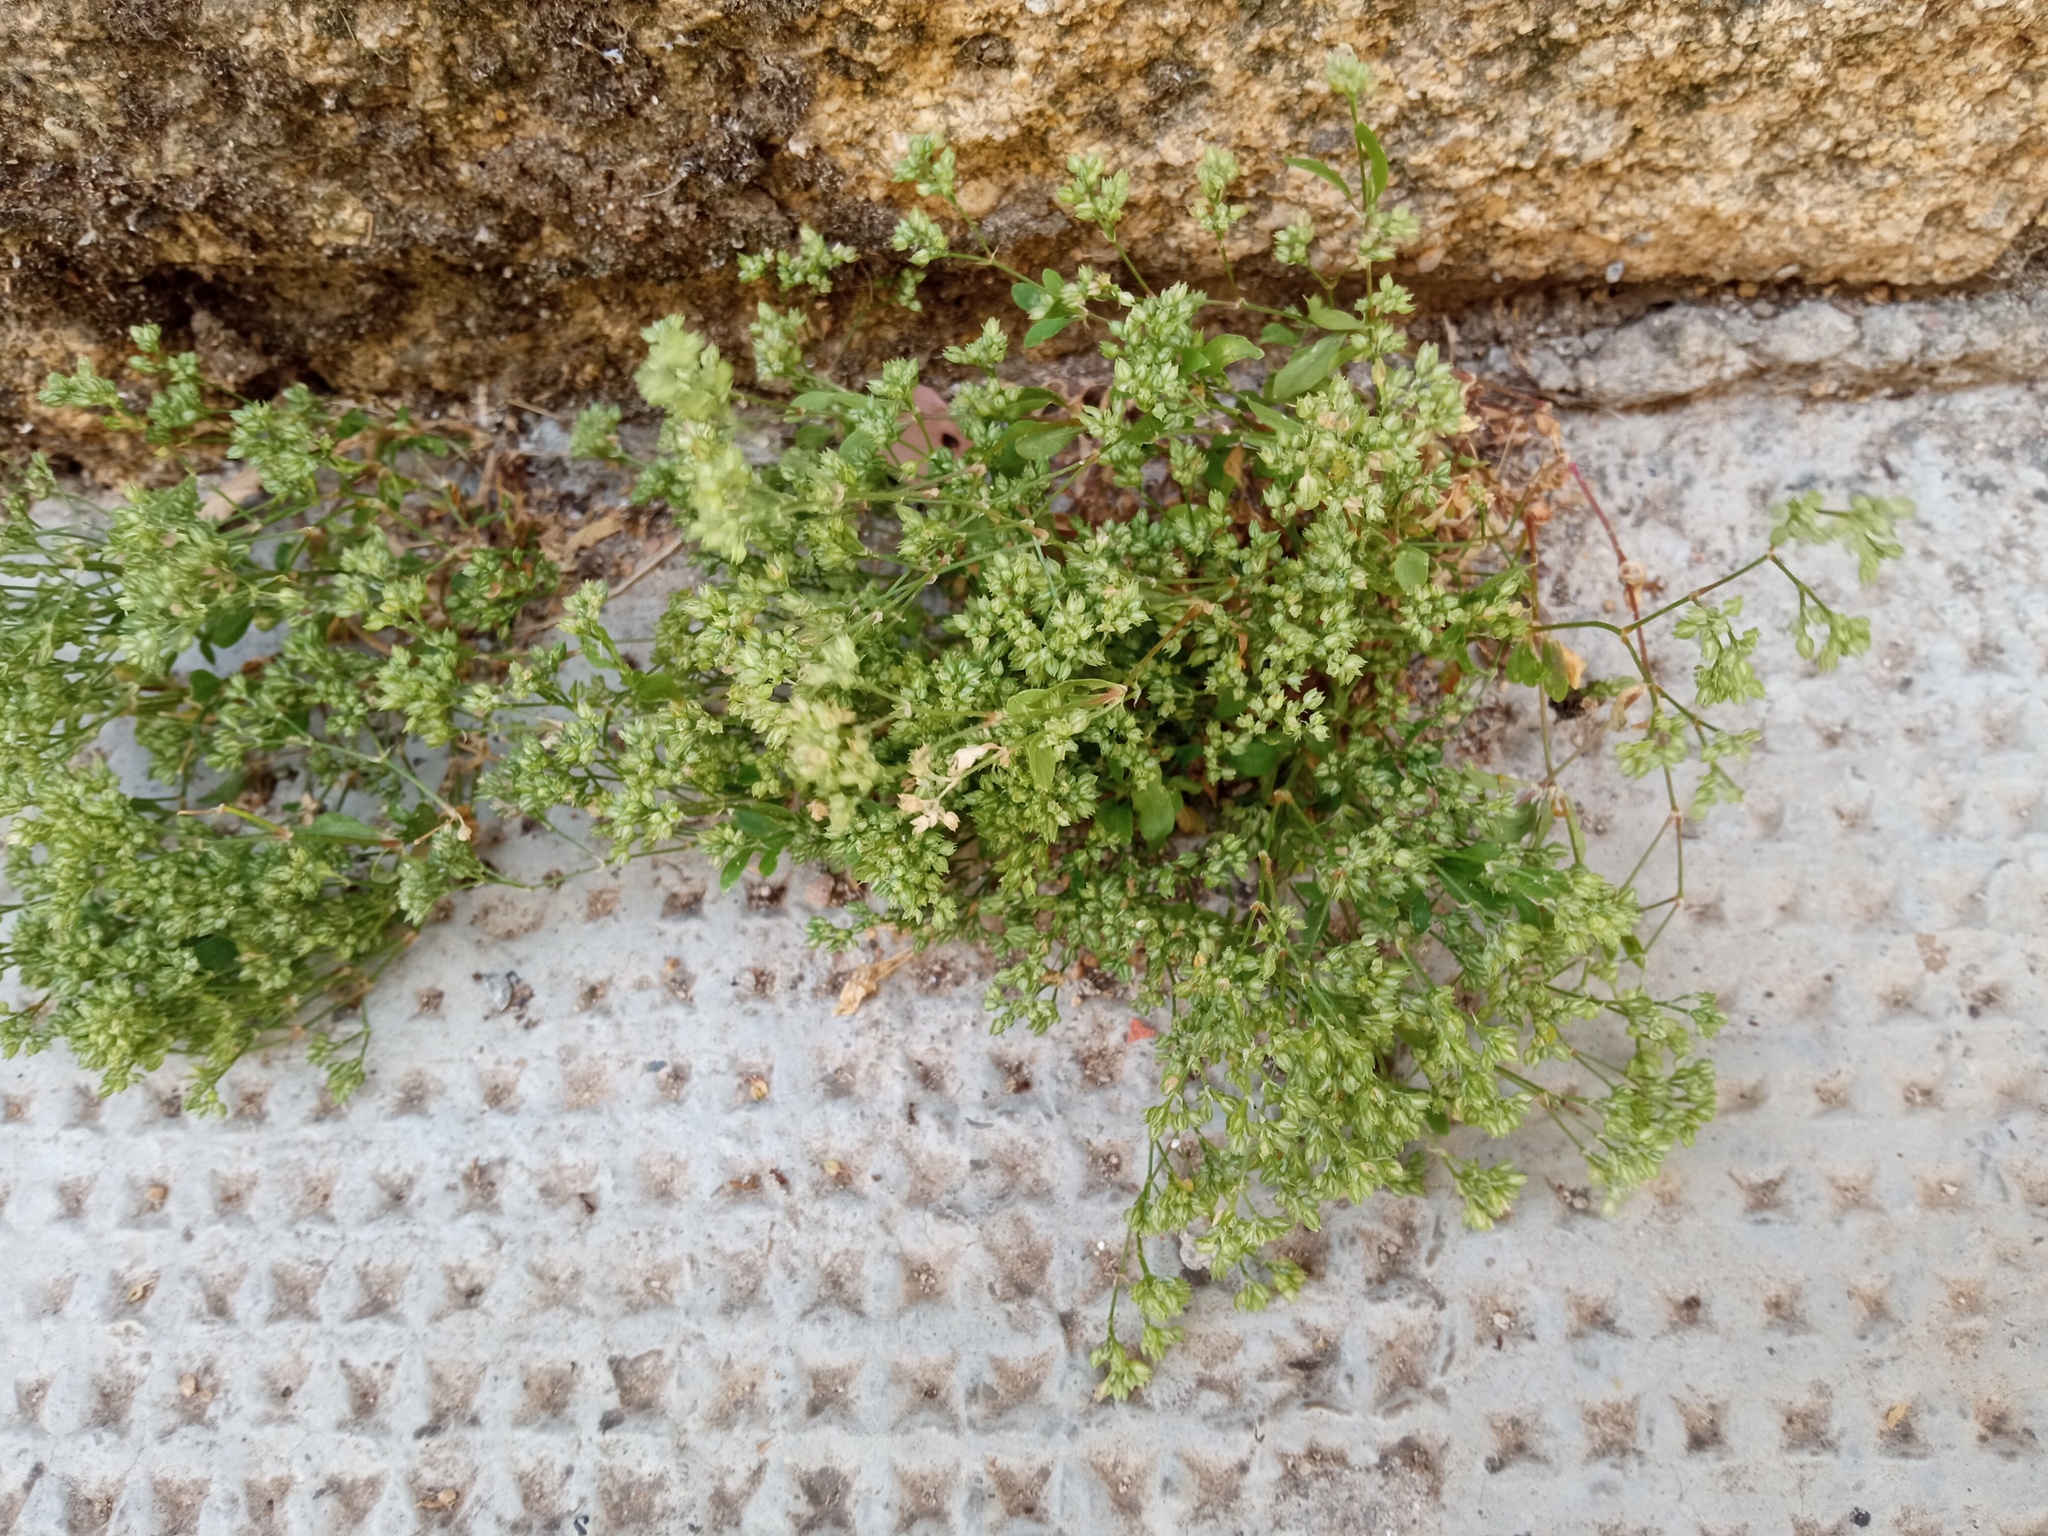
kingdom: Plantae
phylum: Tracheophyta
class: Magnoliopsida
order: Caryophyllales
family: Caryophyllaceae
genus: Polycarpon
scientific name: Polycarpon tetraphyllum
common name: Four-leaved all-seed
